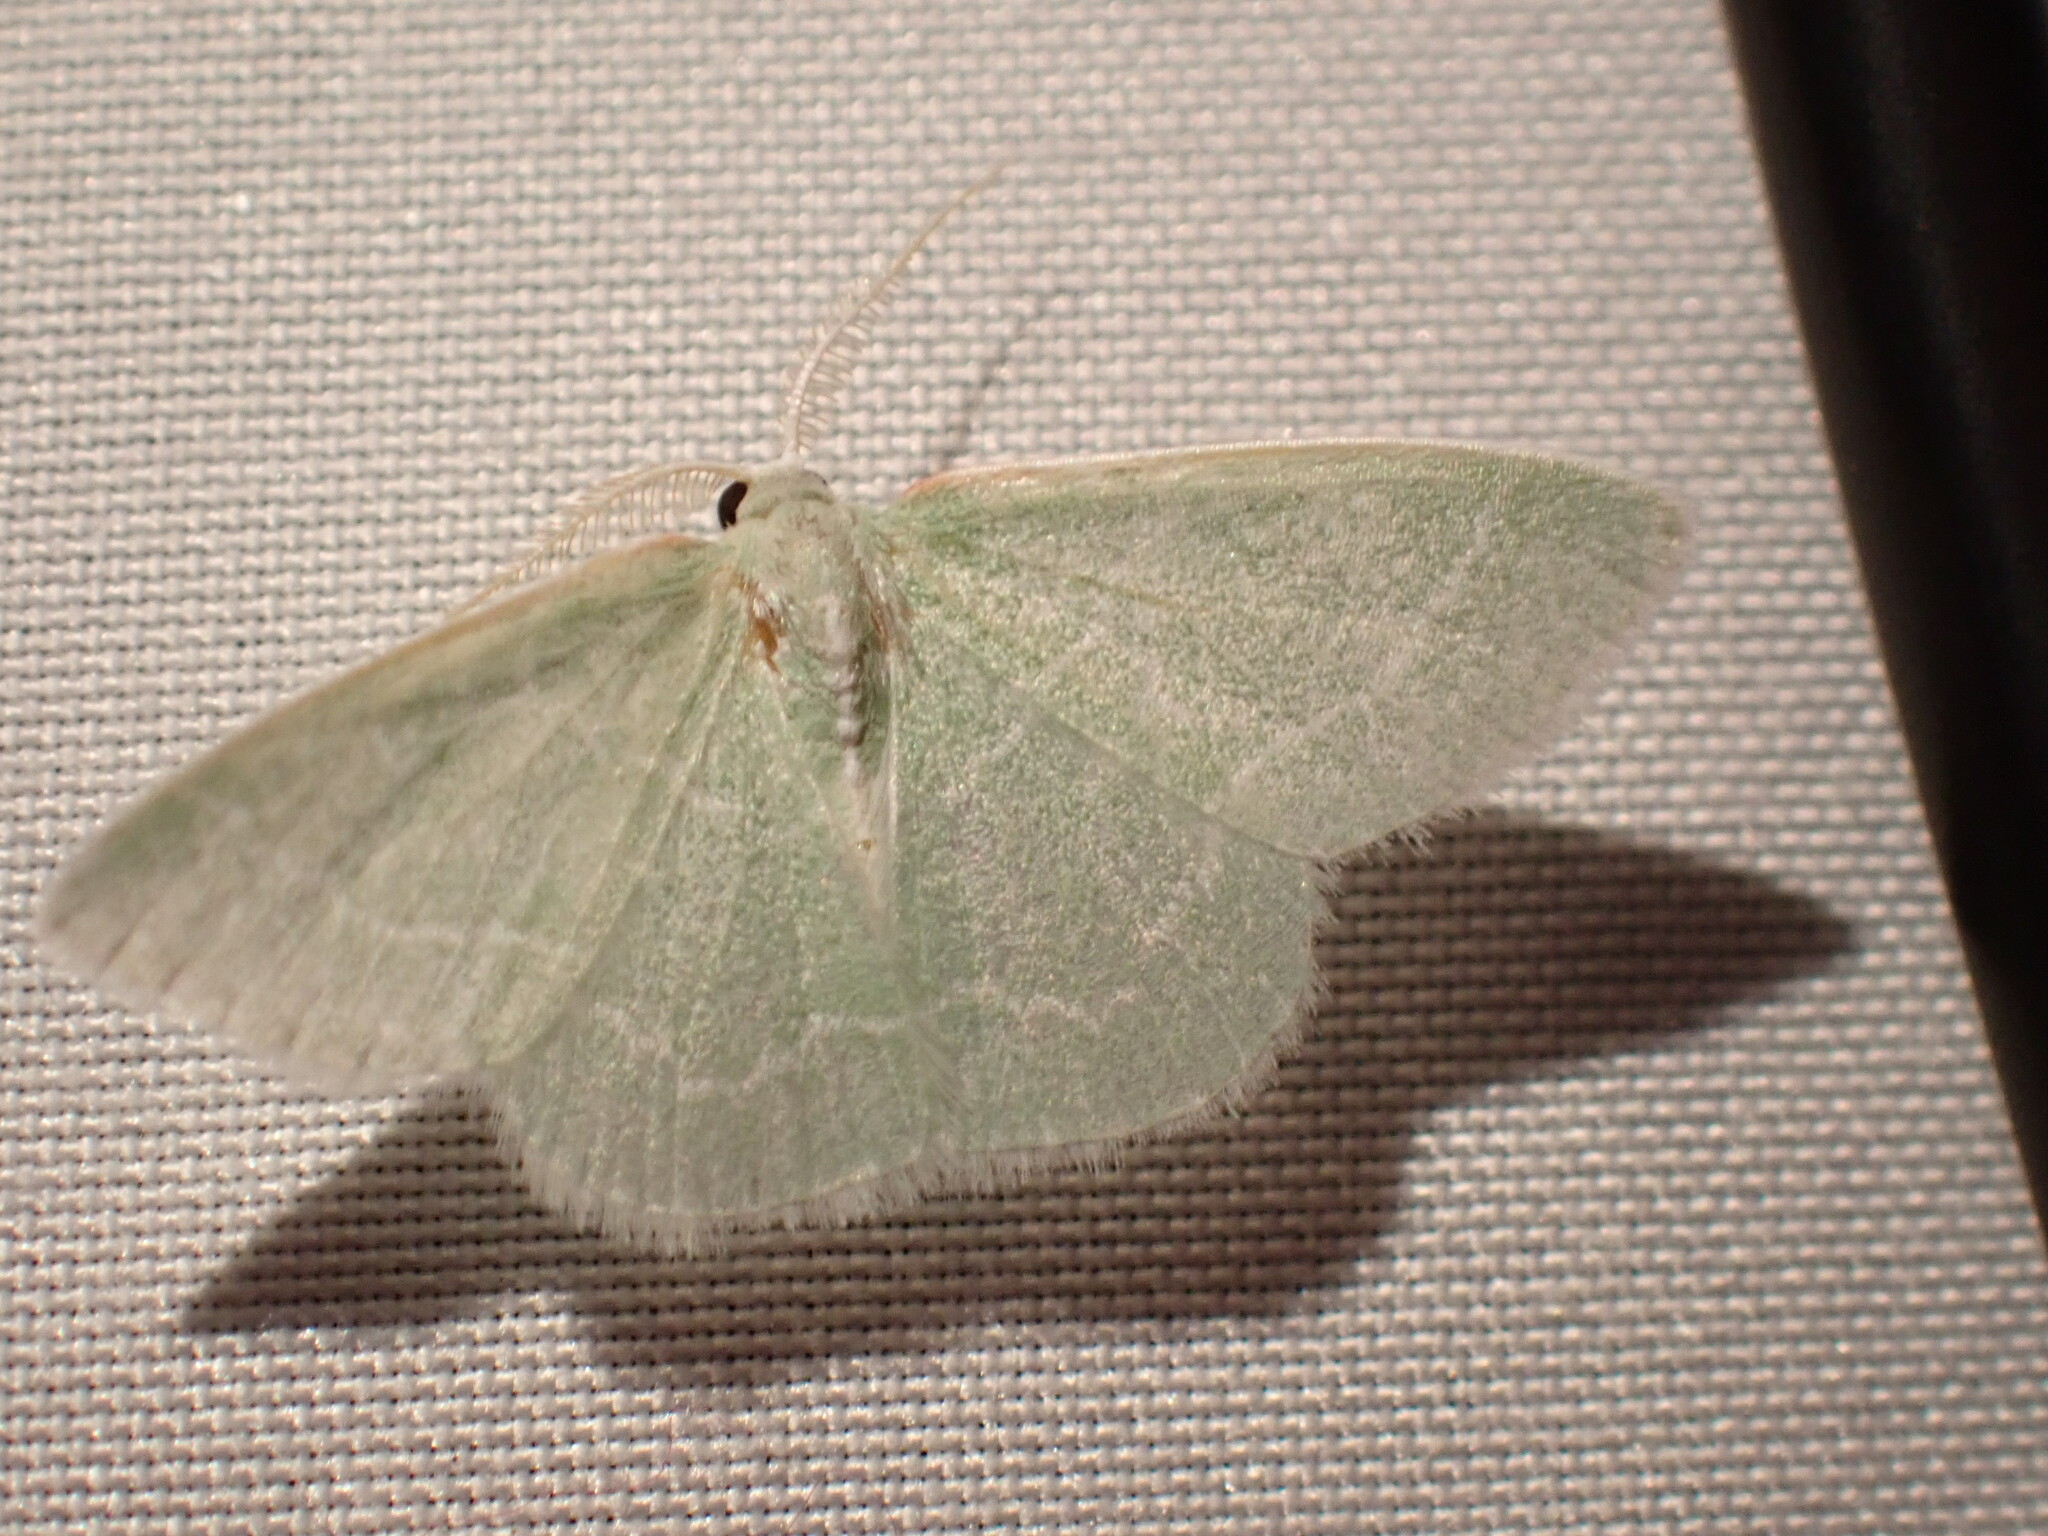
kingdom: Animalia
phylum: Arthropoda
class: Insecta
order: Lepidoptera
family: Geometridae
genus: Synchlora
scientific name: Synchlora aerata
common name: Wavy-lined emerald
